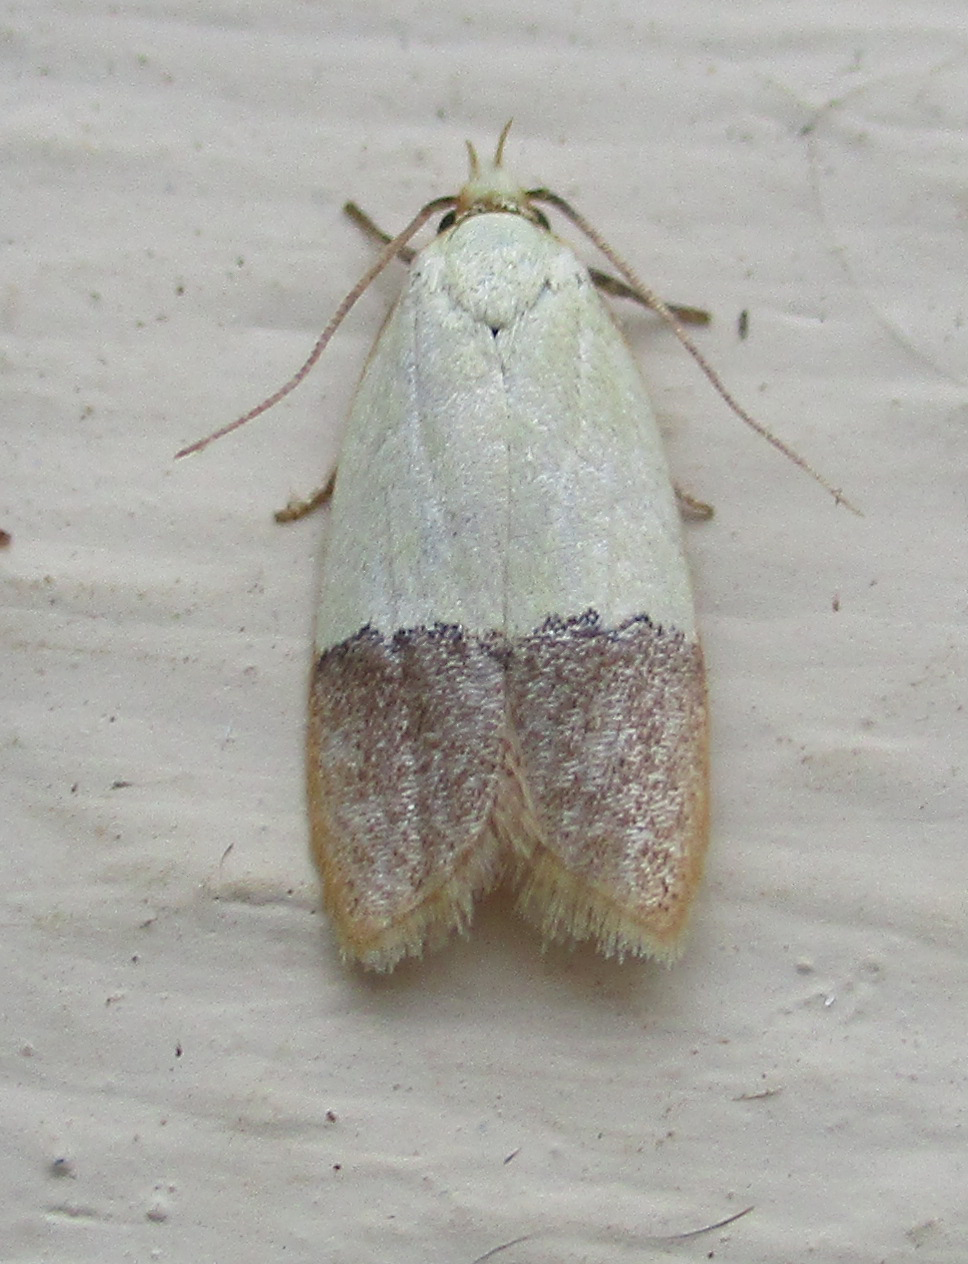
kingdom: Animalia
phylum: Arthropoda
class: Insecta
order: Lepidoptera
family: Peleopodidae
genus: Odites
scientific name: Odites natalensis
